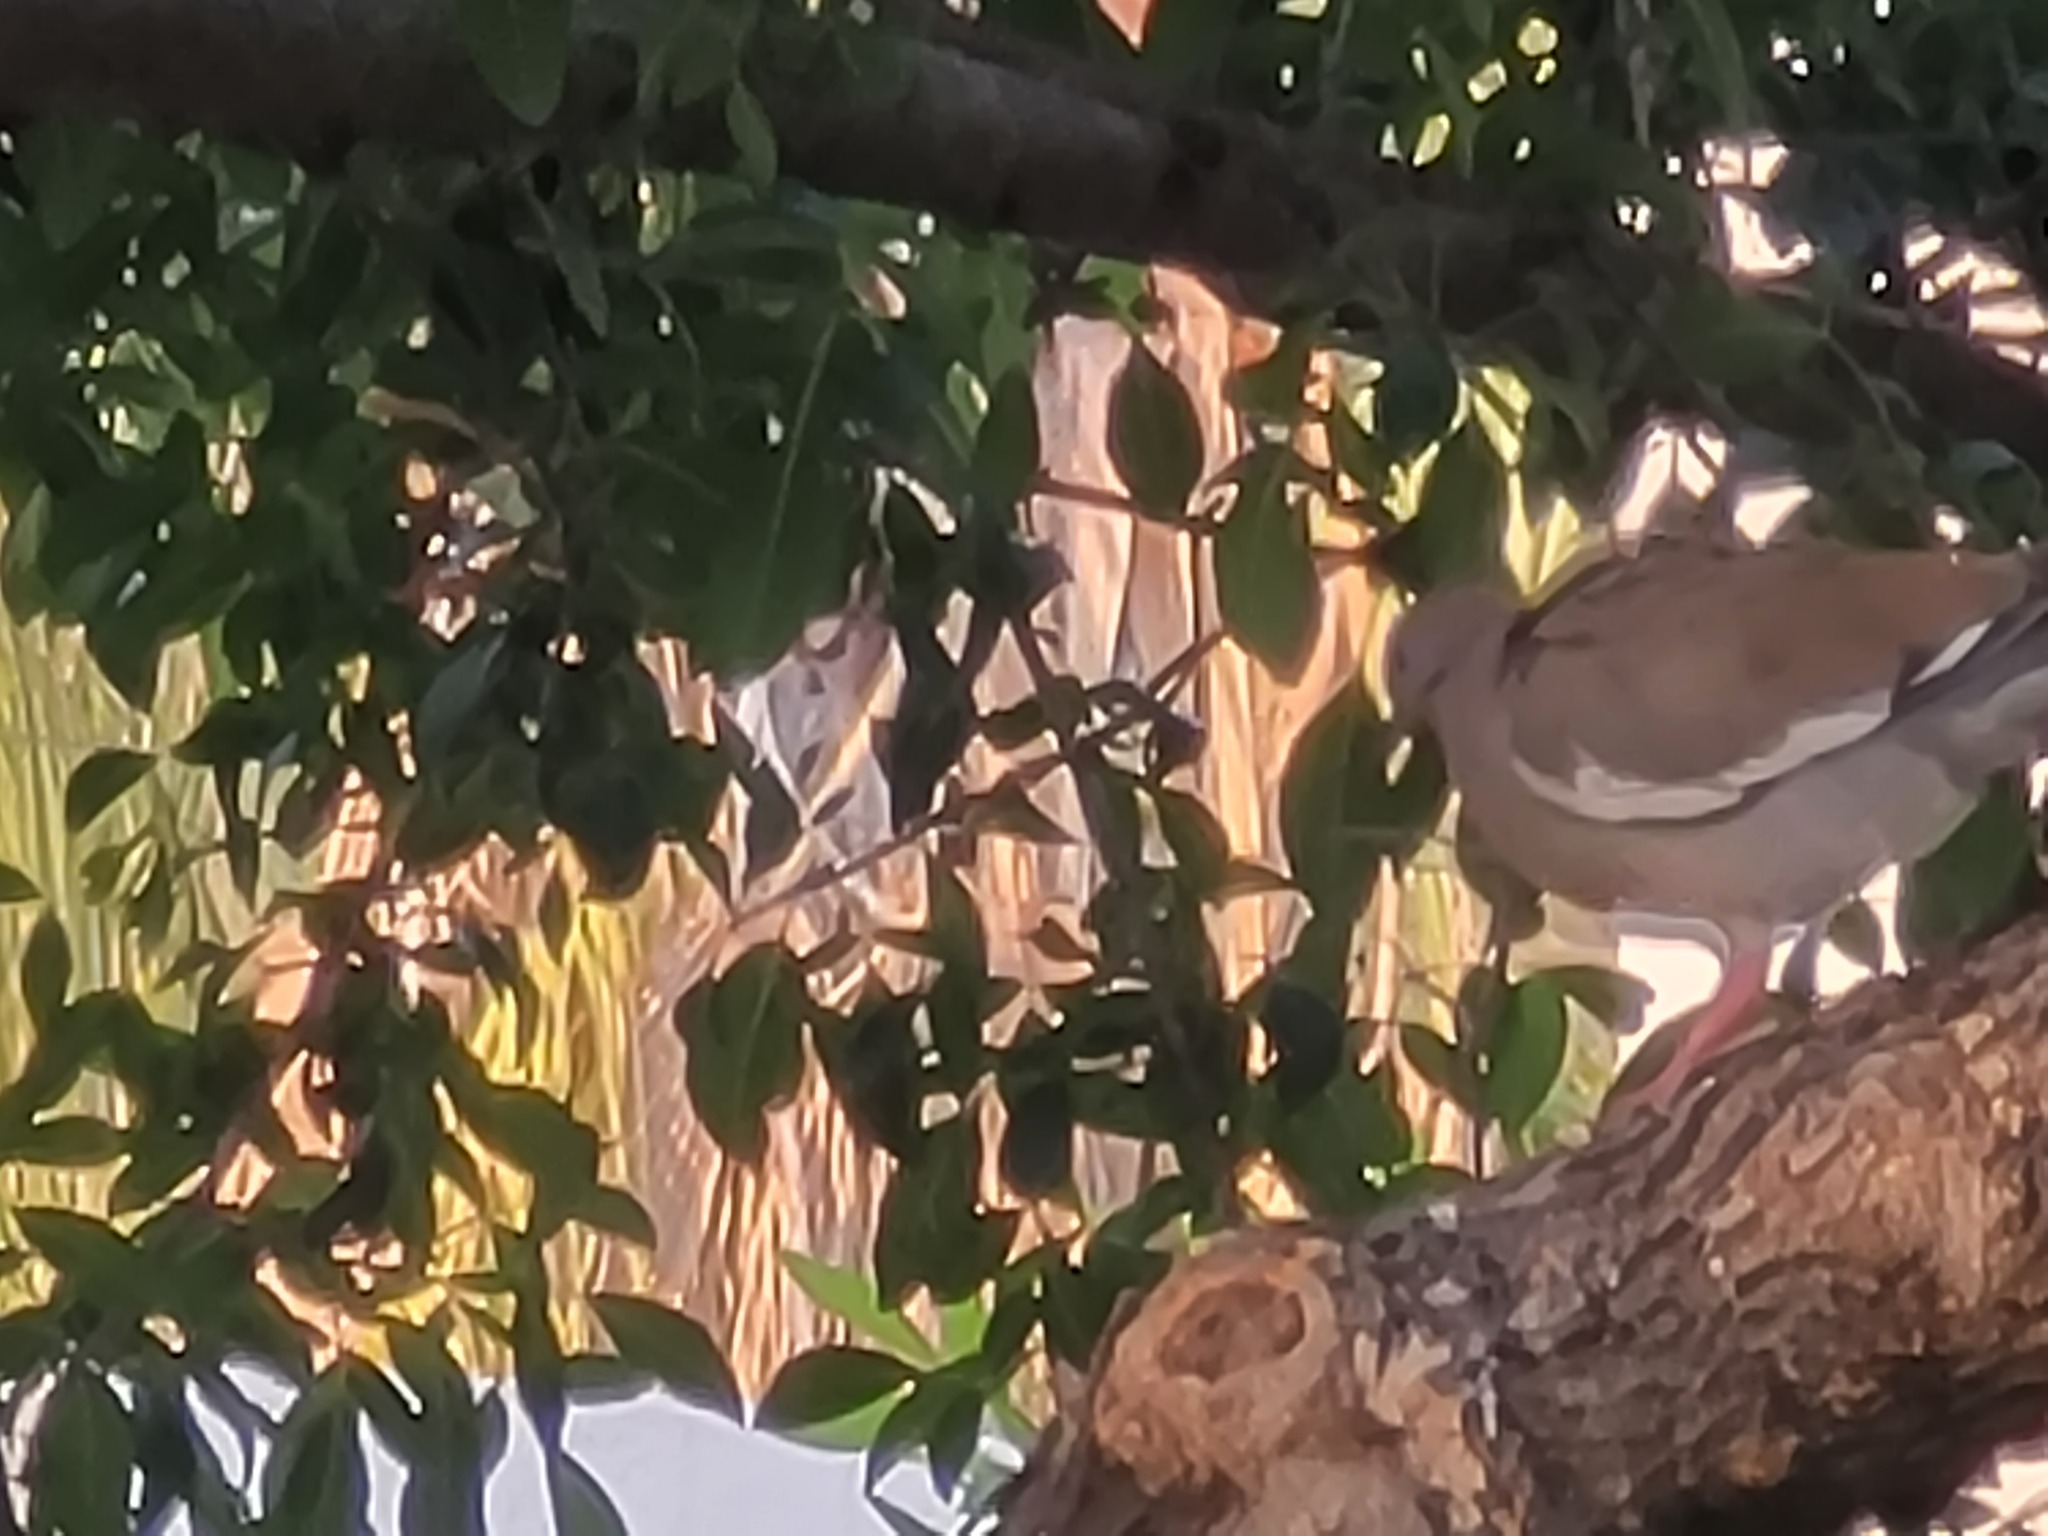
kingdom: Animalia
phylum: Chordata
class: Aves
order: Columbiformes
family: Columbidae
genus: Zenaida
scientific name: Zenaida asiatica
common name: White-winged dove
